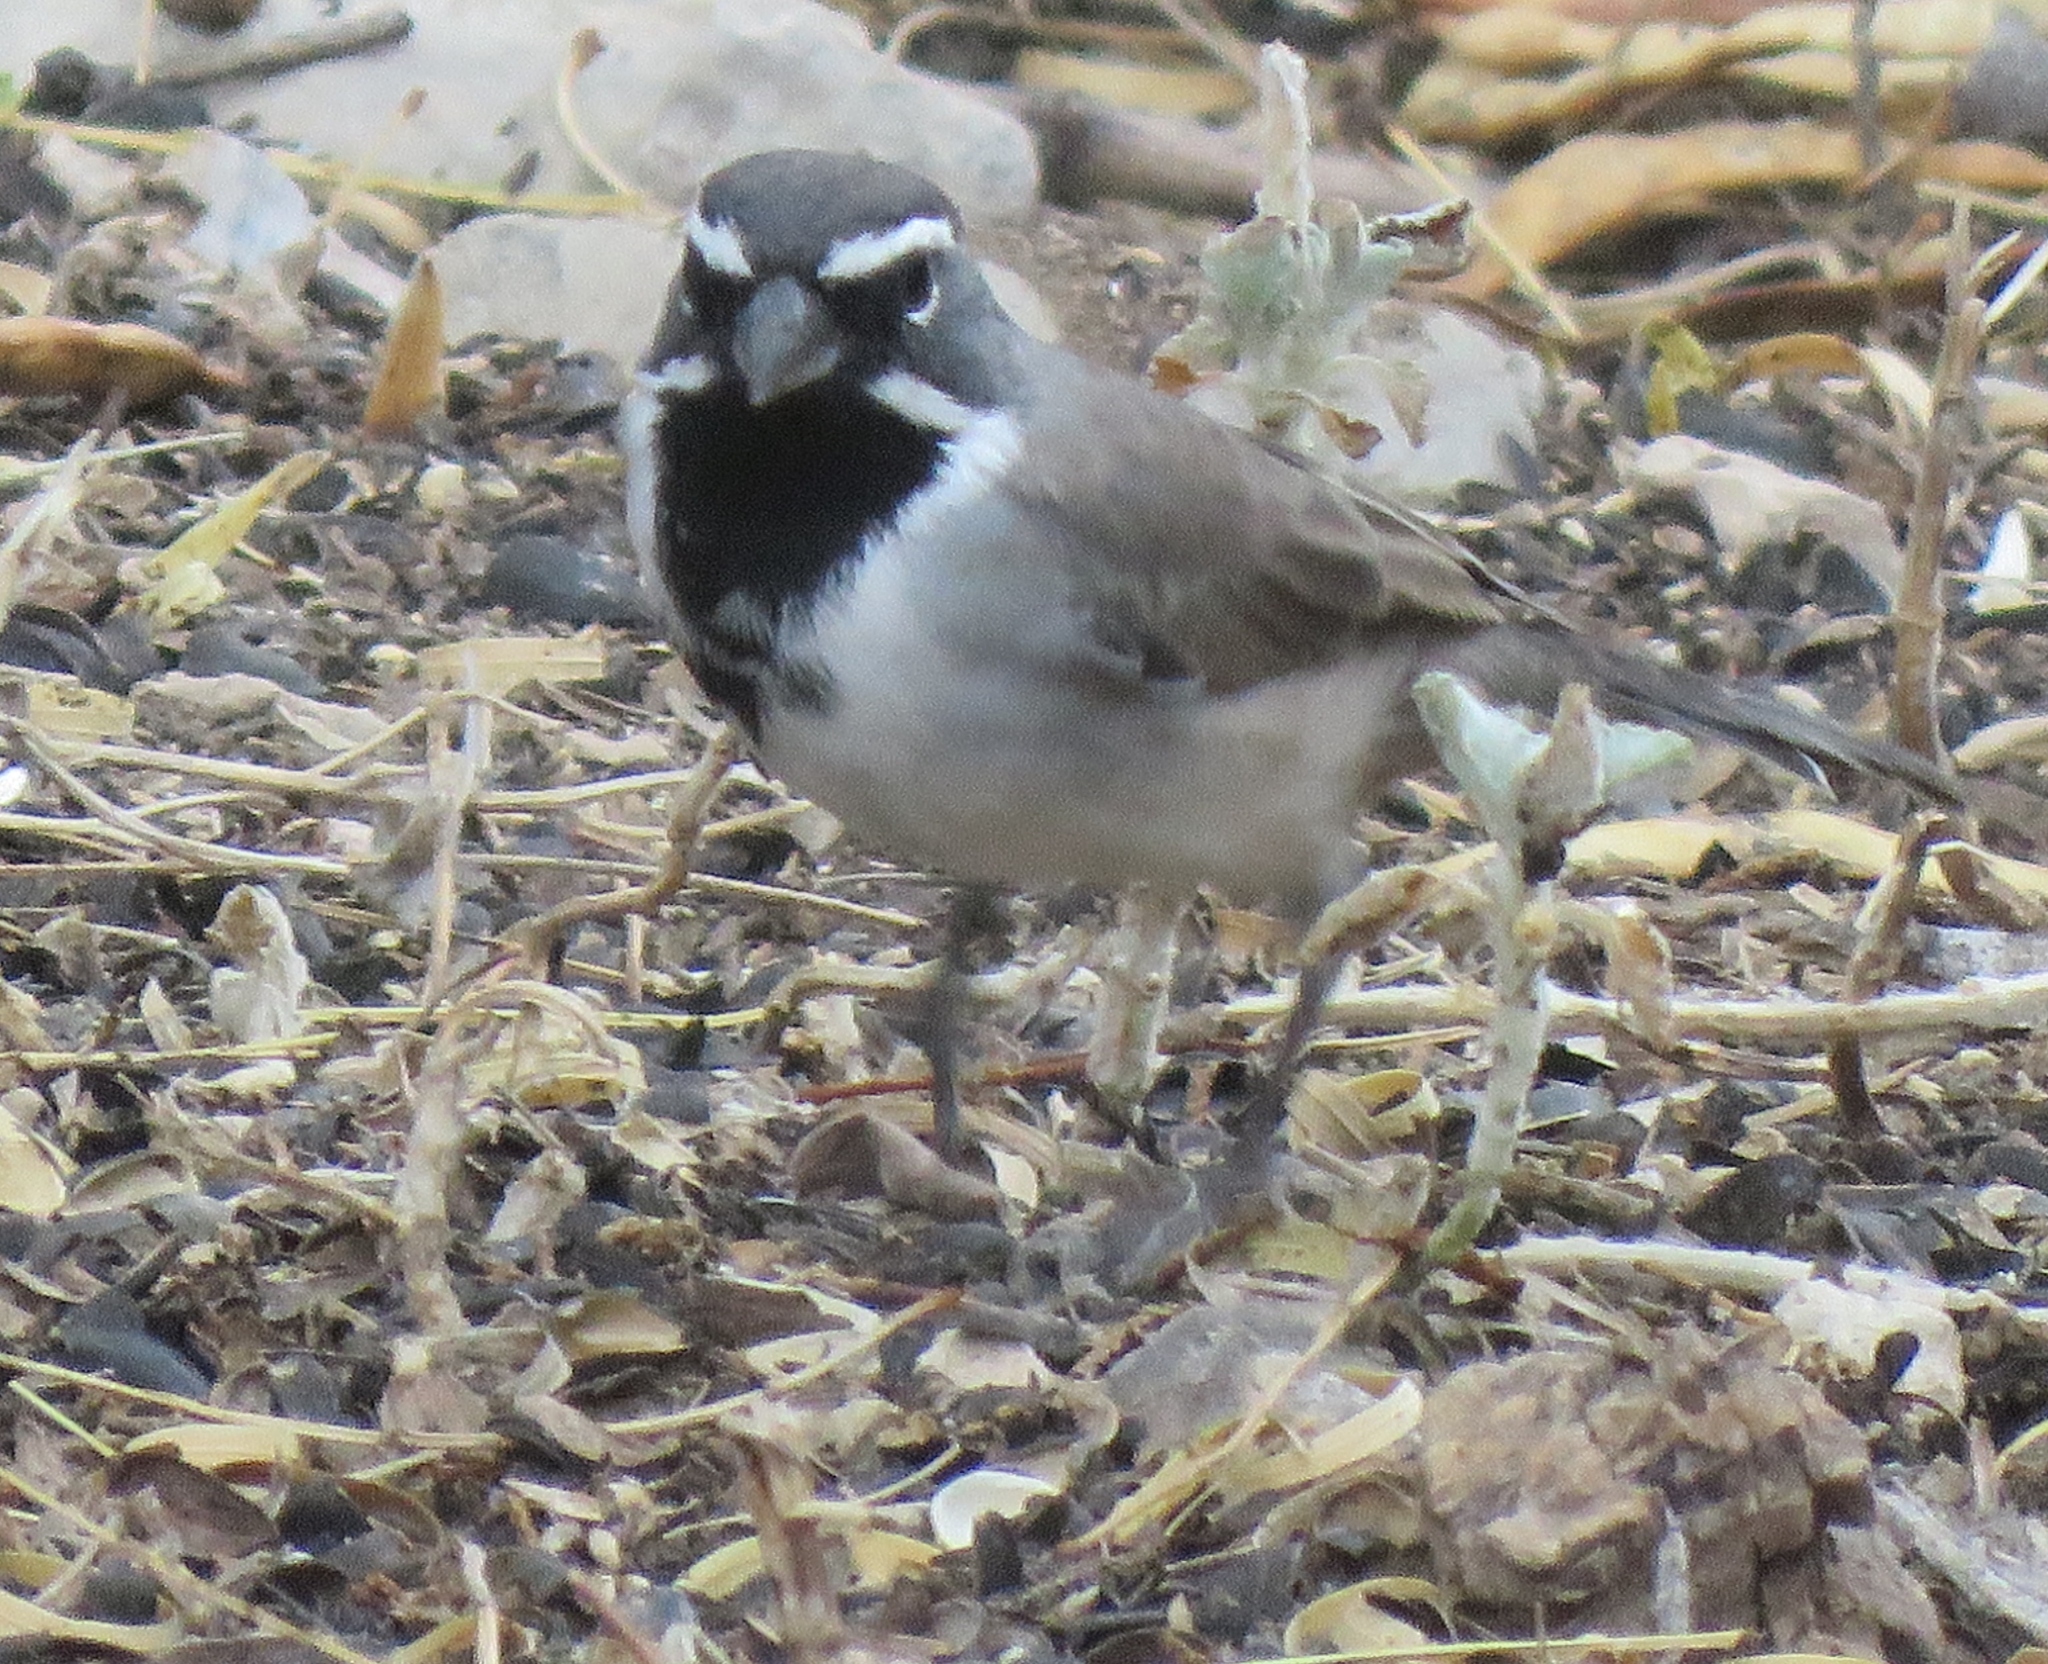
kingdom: Animalia
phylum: Chordata
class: Aves
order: Passeriformes
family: Passerellidae
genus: Amphispiza
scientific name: Amphispiza bilineata
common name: Black-throated sparrow
